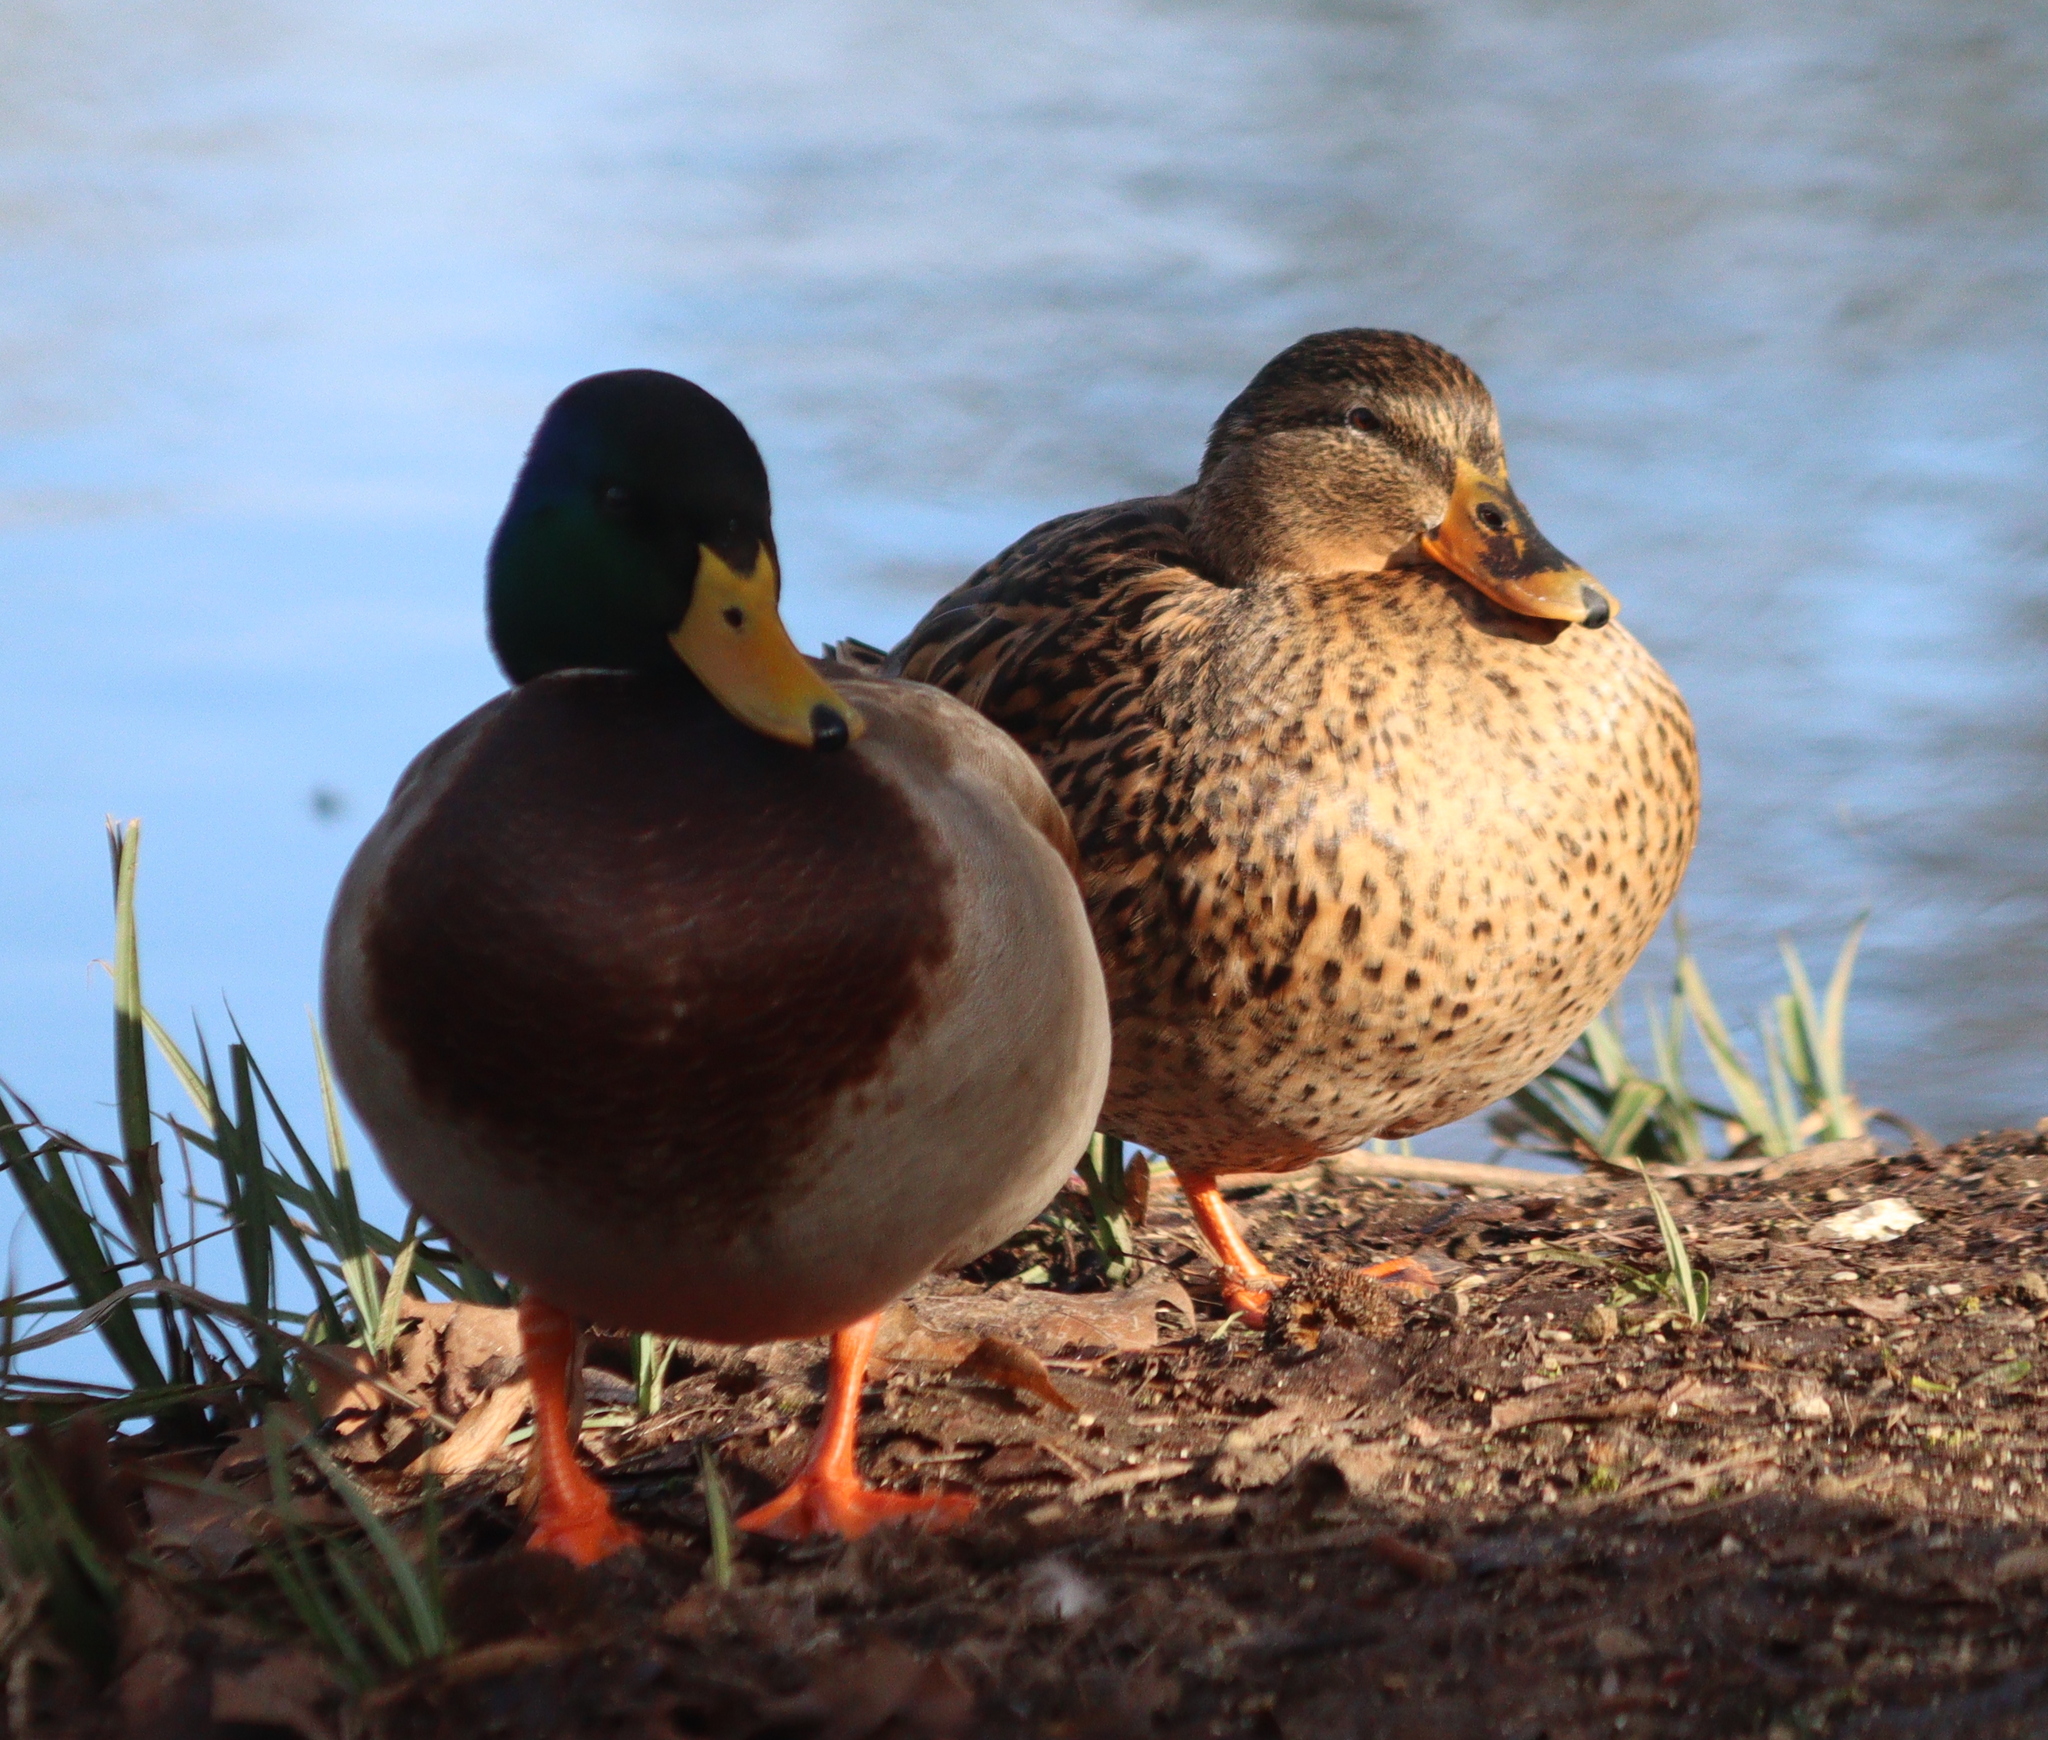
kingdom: Animalia
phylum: Chordata
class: Aves
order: Anseriformes
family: Anatidae
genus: Anas
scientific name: Anas platyrhynchos
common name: Mallard
